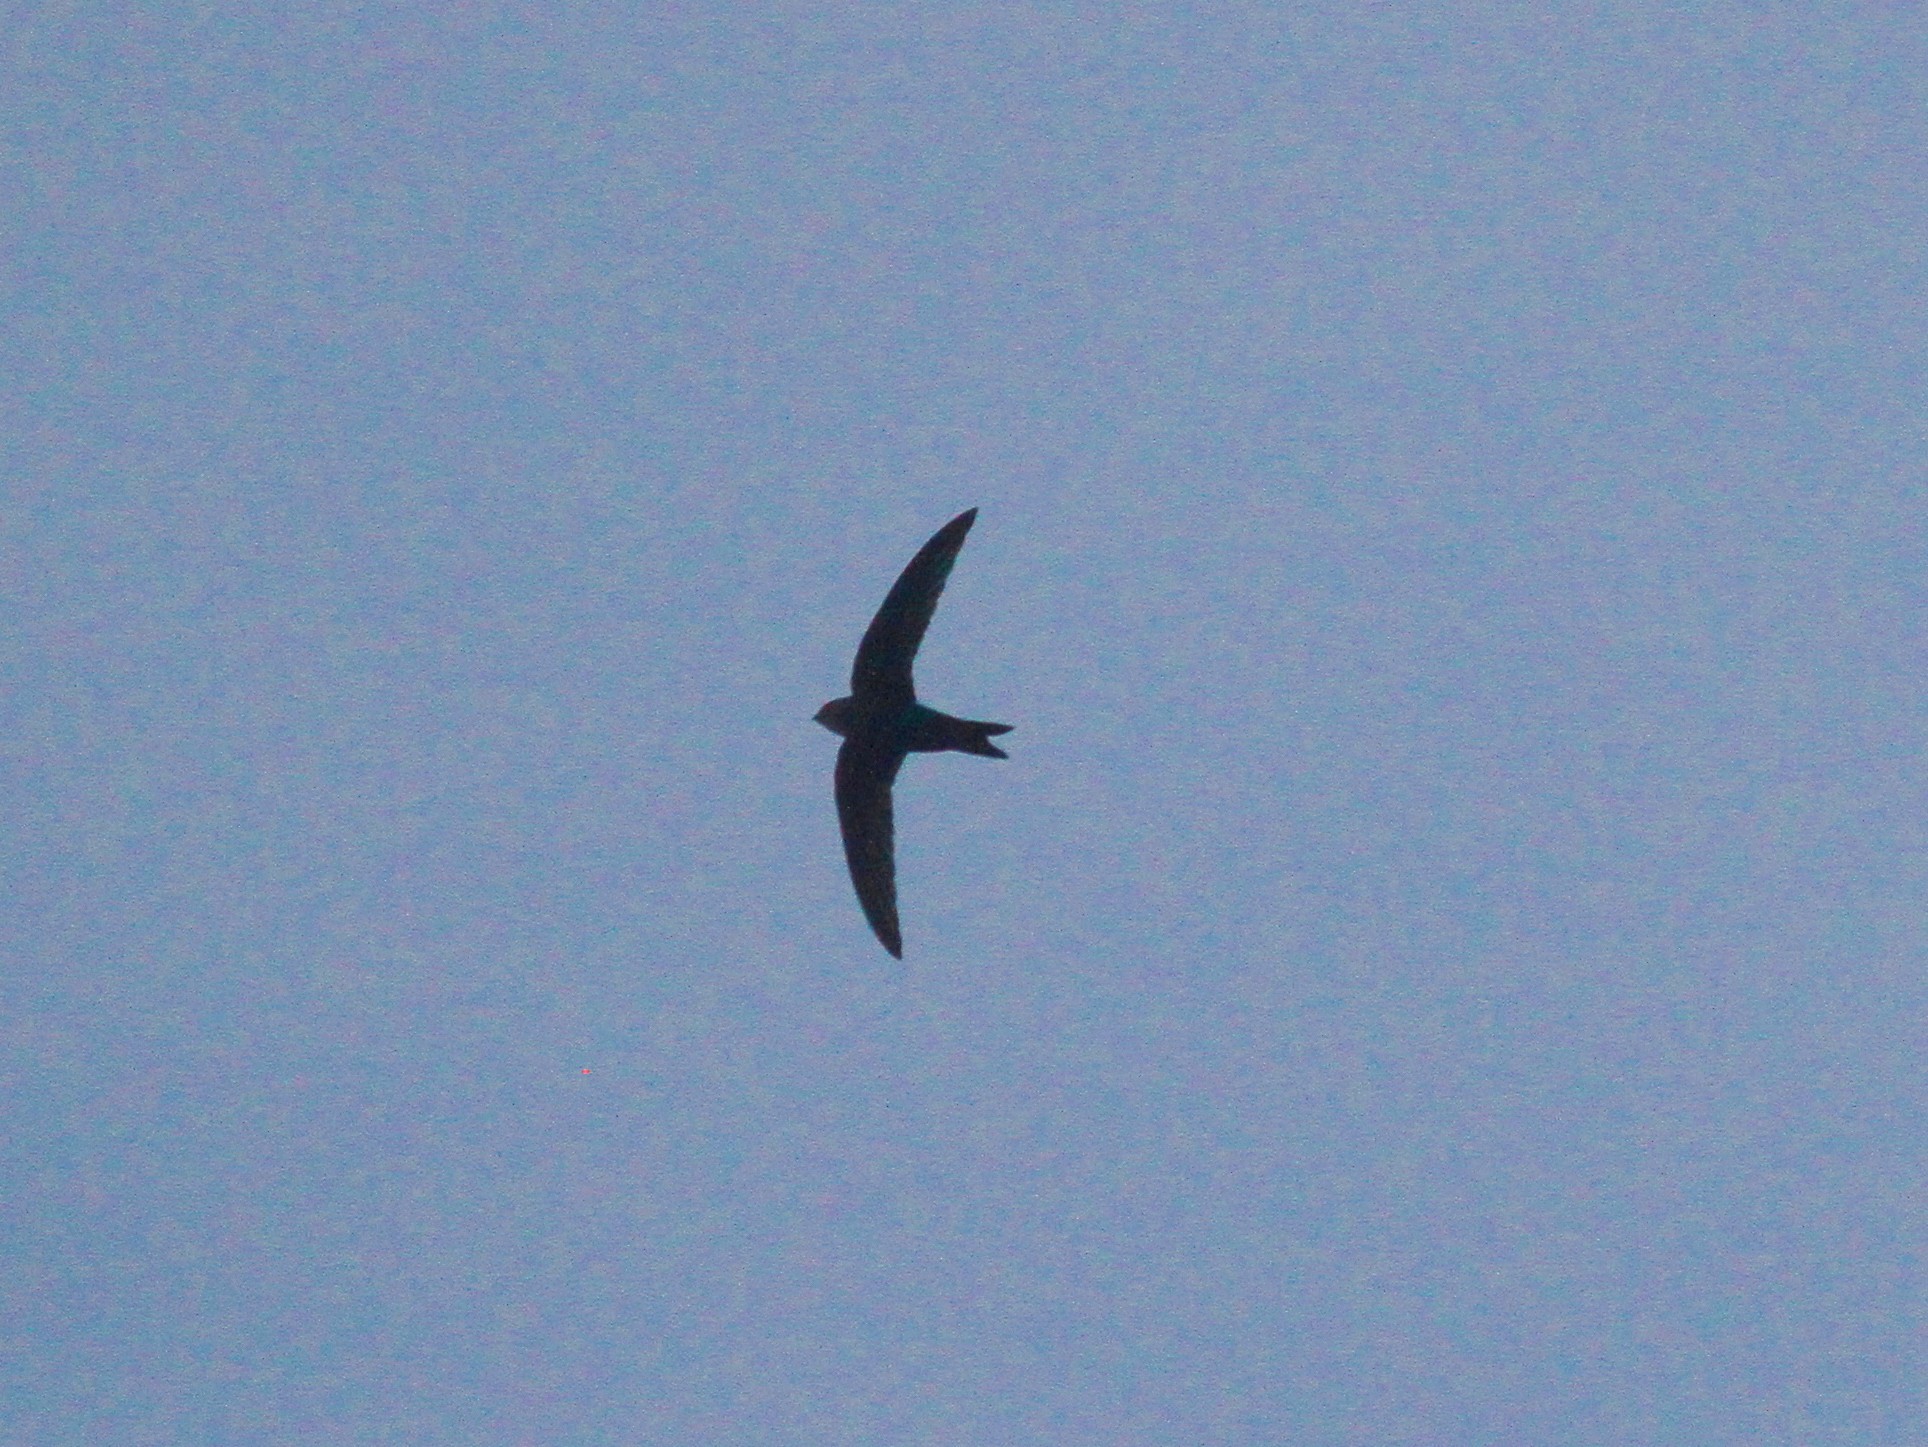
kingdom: Animalia
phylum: Chordata
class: Aves
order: Apodiformes
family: Apodidae
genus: Apus
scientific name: Apus leuconyx
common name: Blyth's swift
